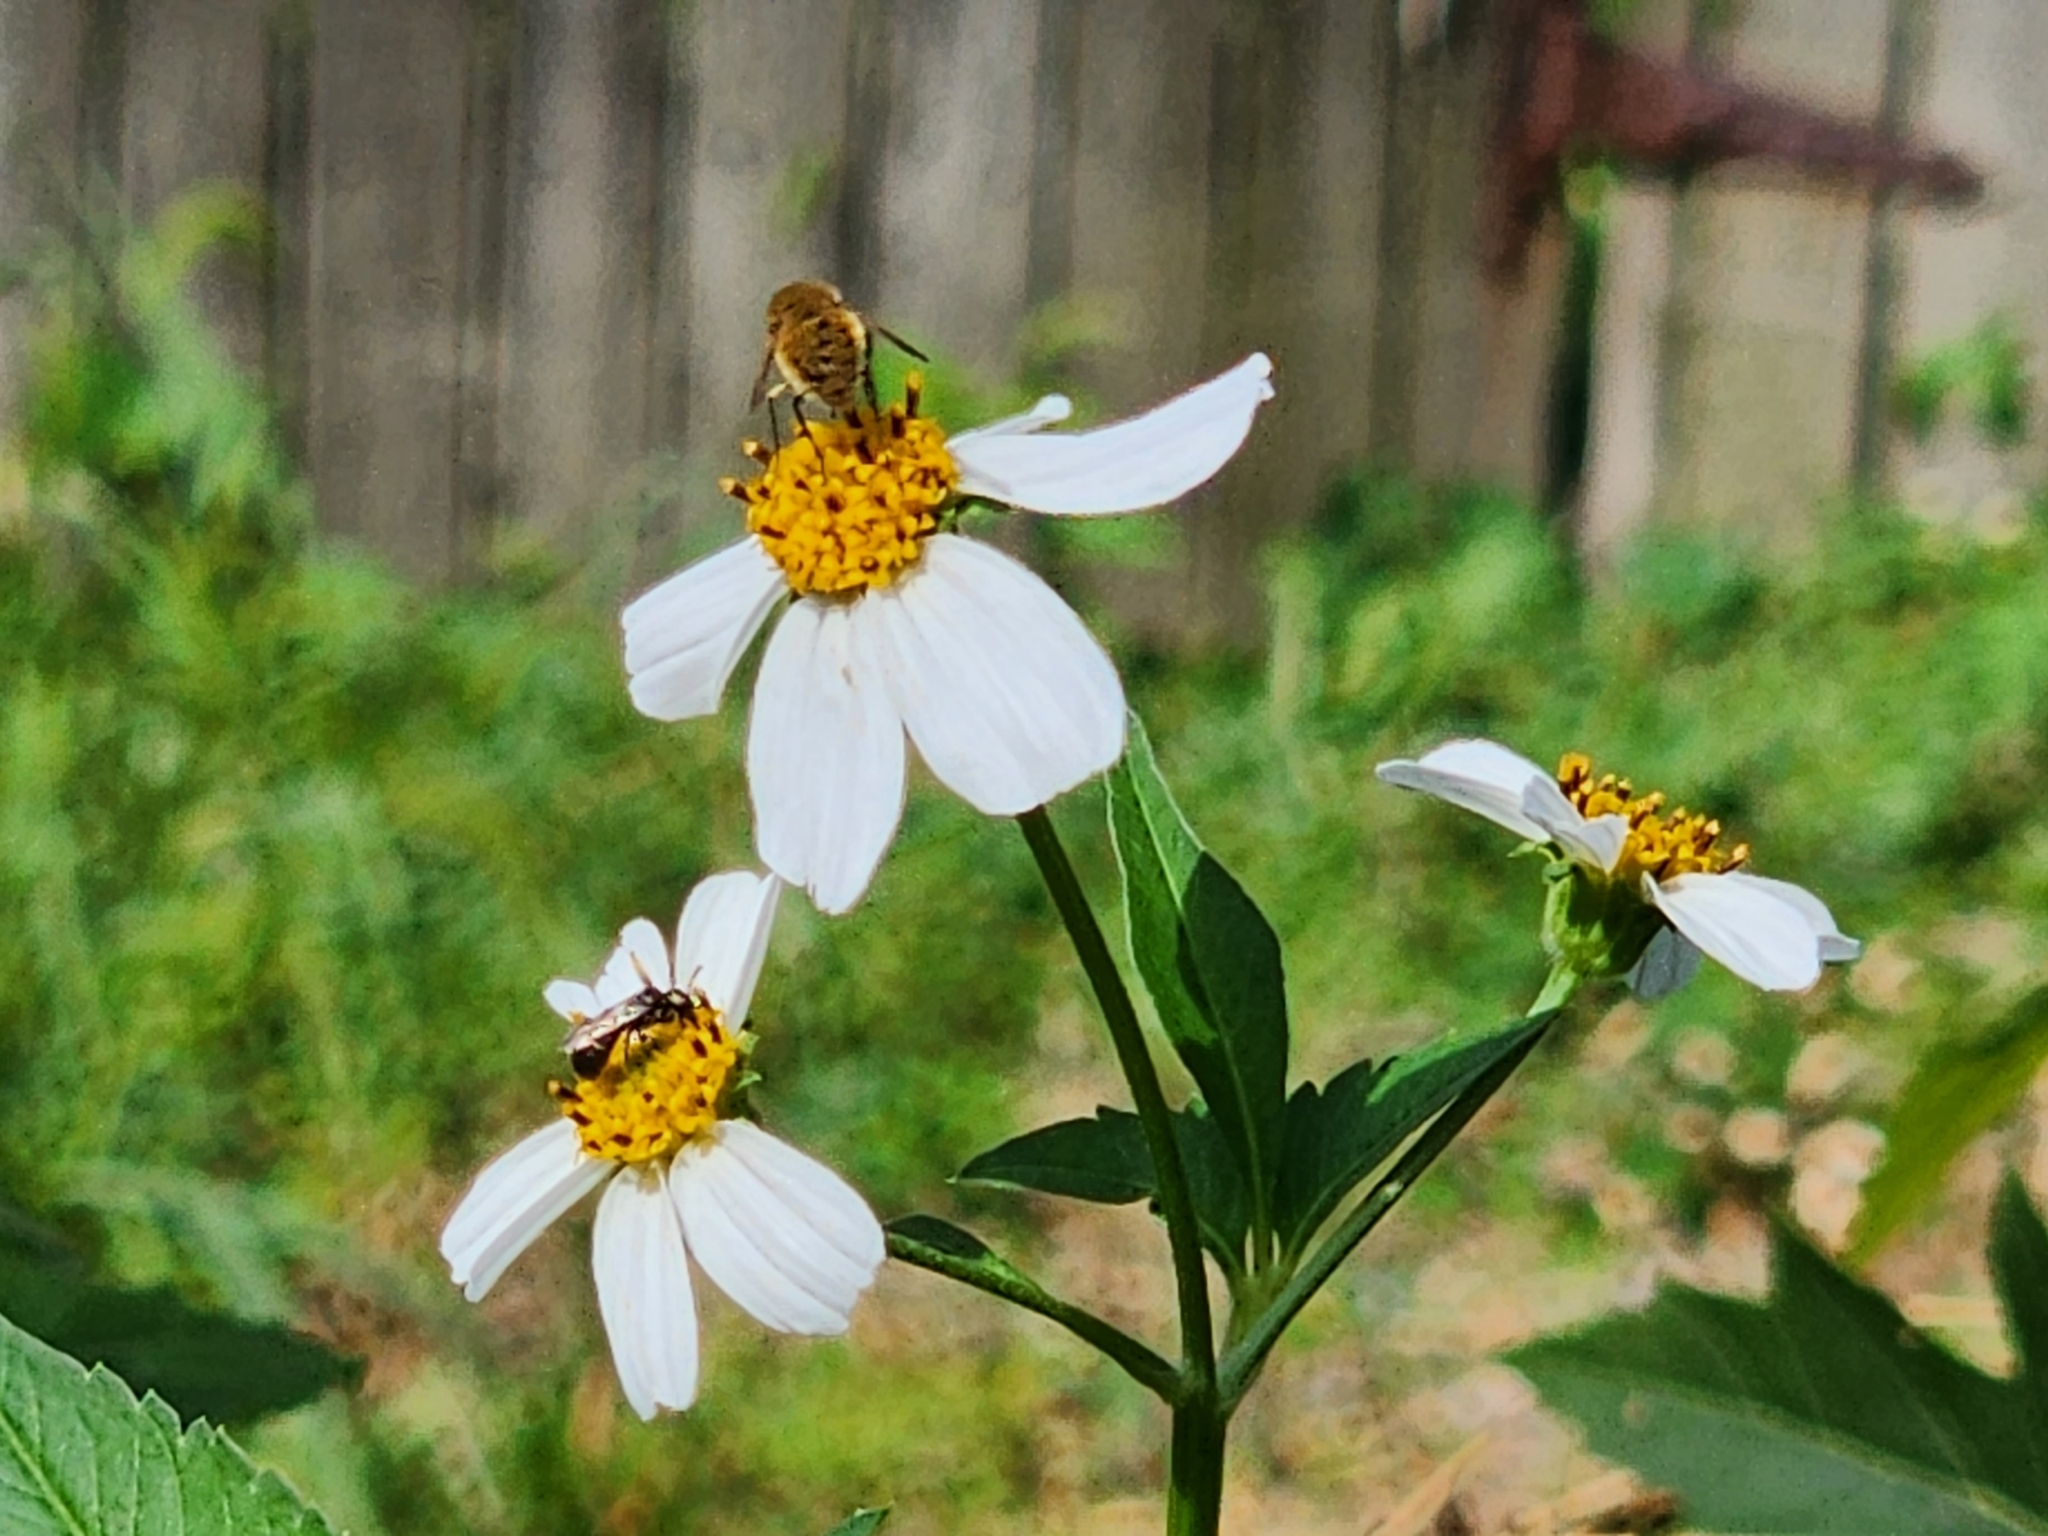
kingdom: Animalia
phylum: Arthropoda
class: Insecta
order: Diptera
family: Bombyliidae
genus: Sparnopolius
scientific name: Sparnopolius confusus
